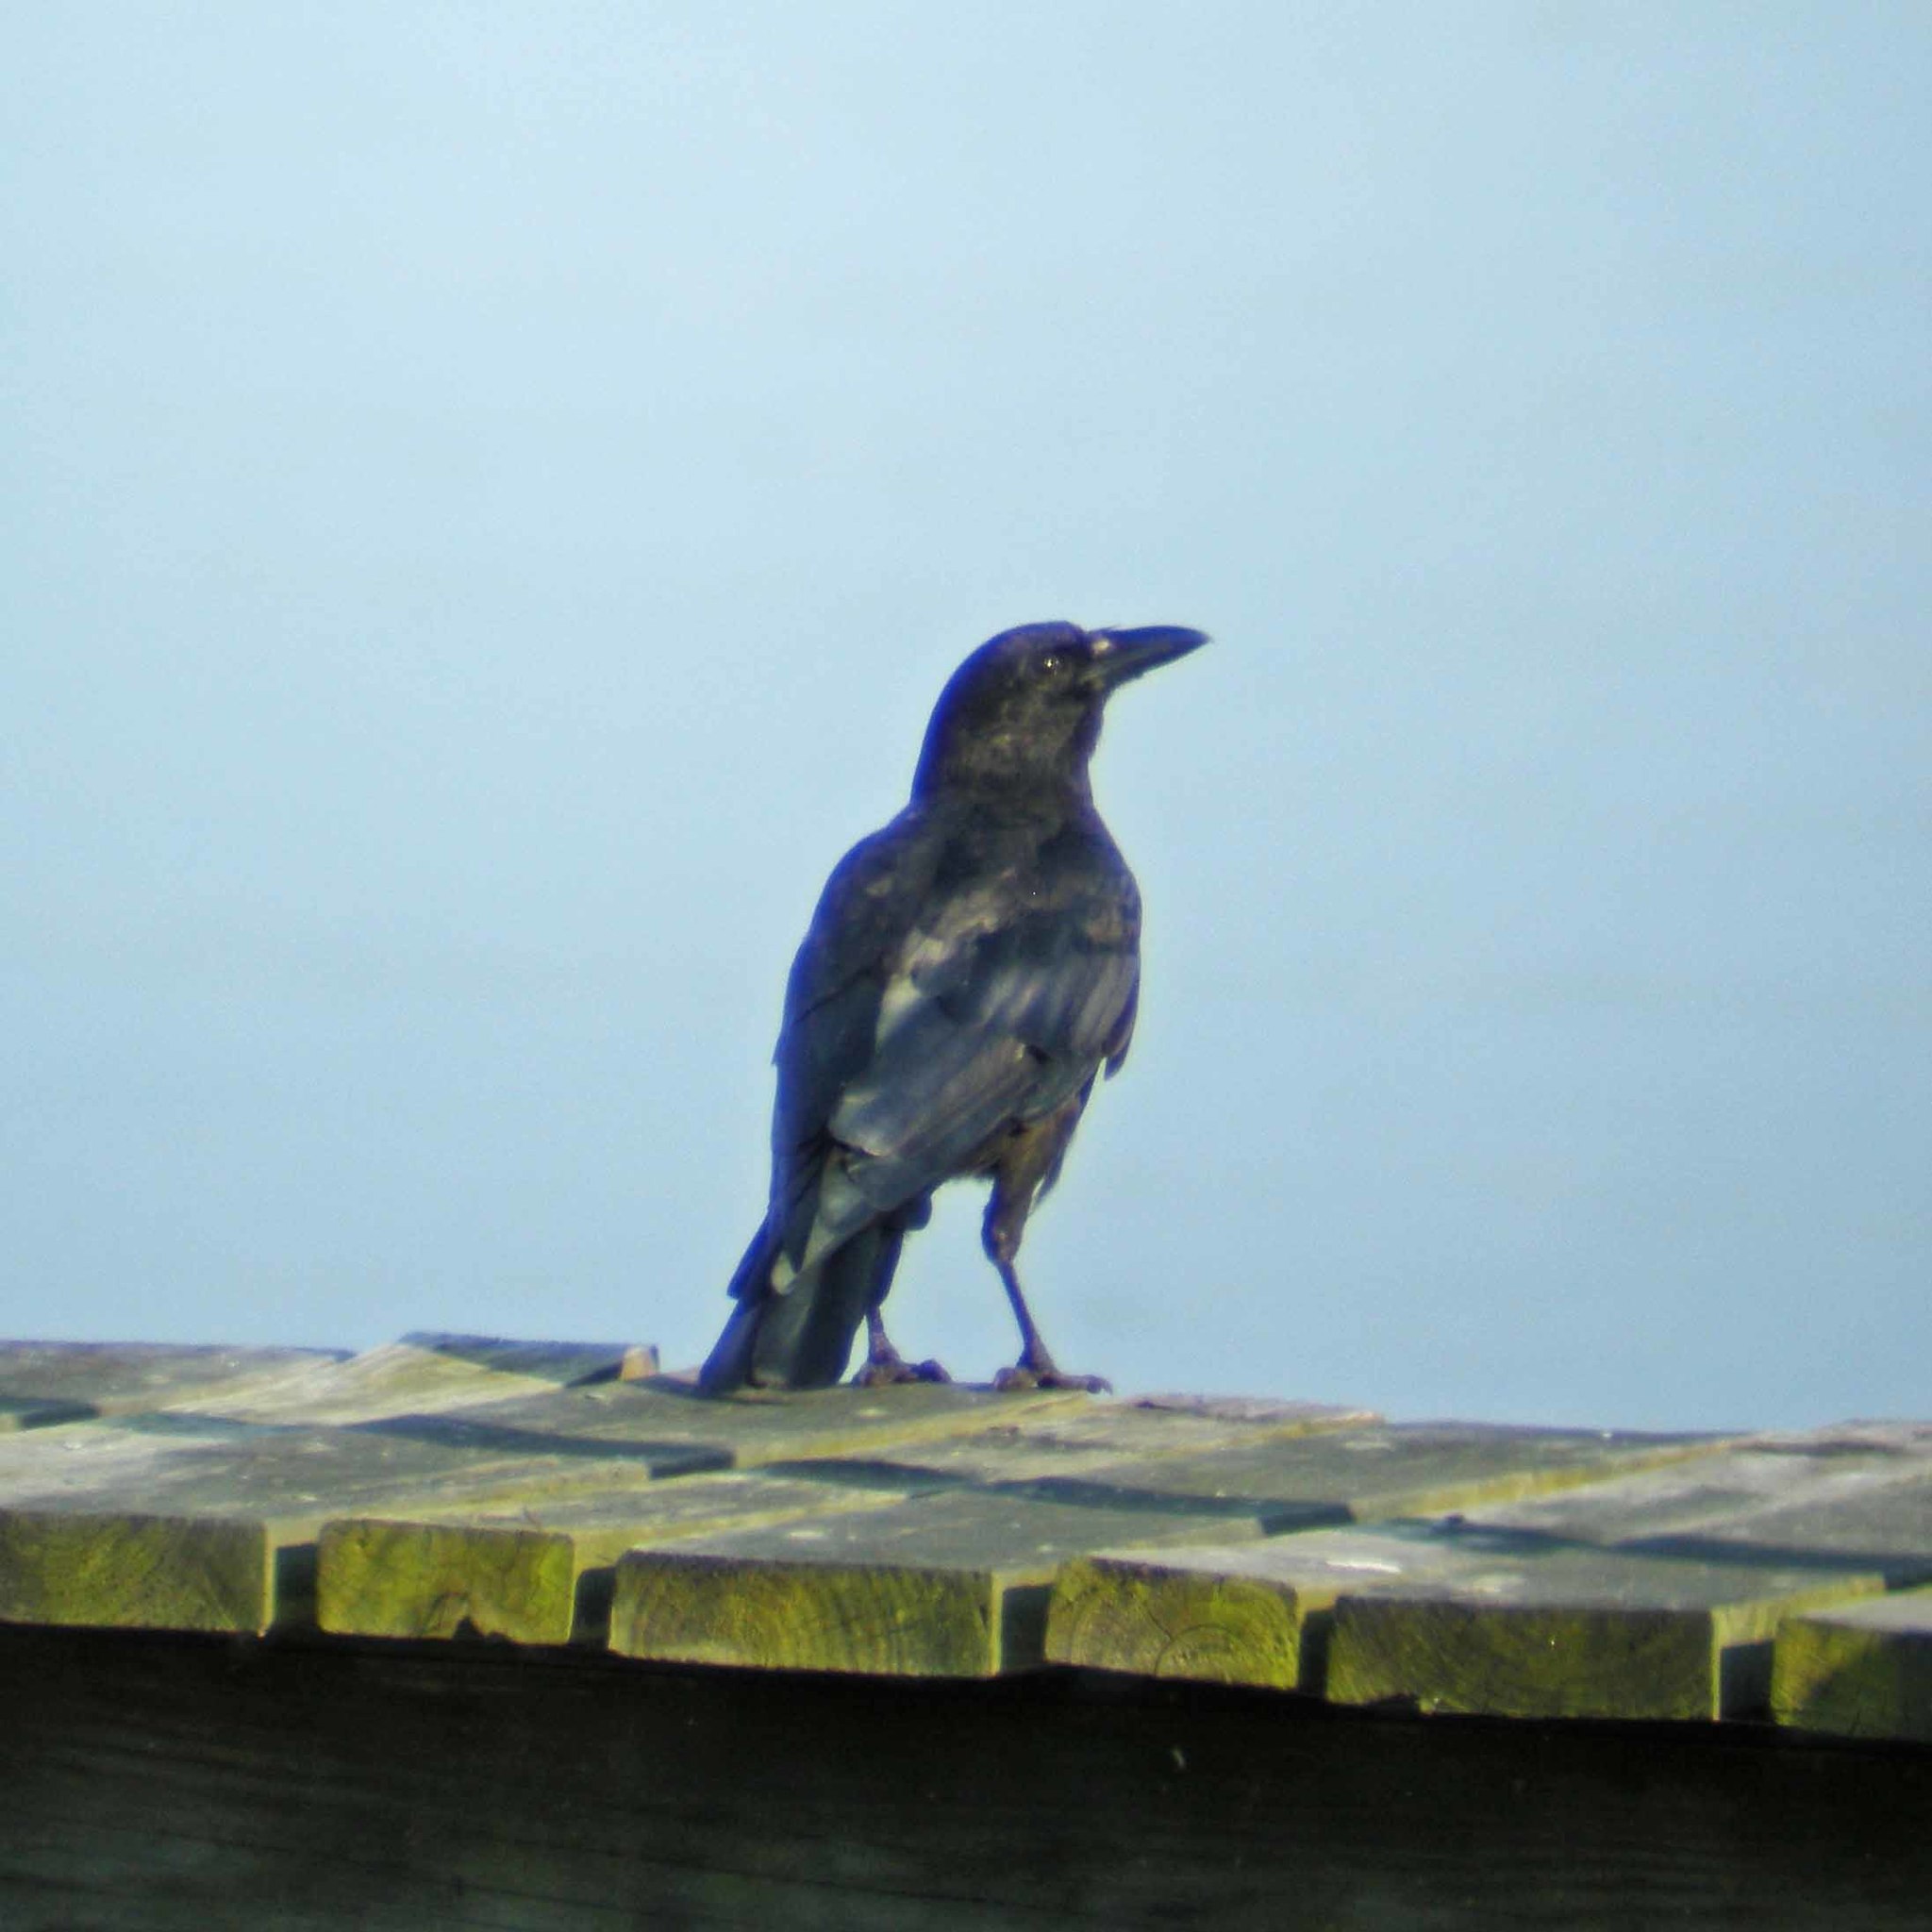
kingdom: Animalia
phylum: Chordata
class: Aves
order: Passeriformes
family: Corvidae
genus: Corvus
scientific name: Corvus ossifragus
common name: Fish crow
